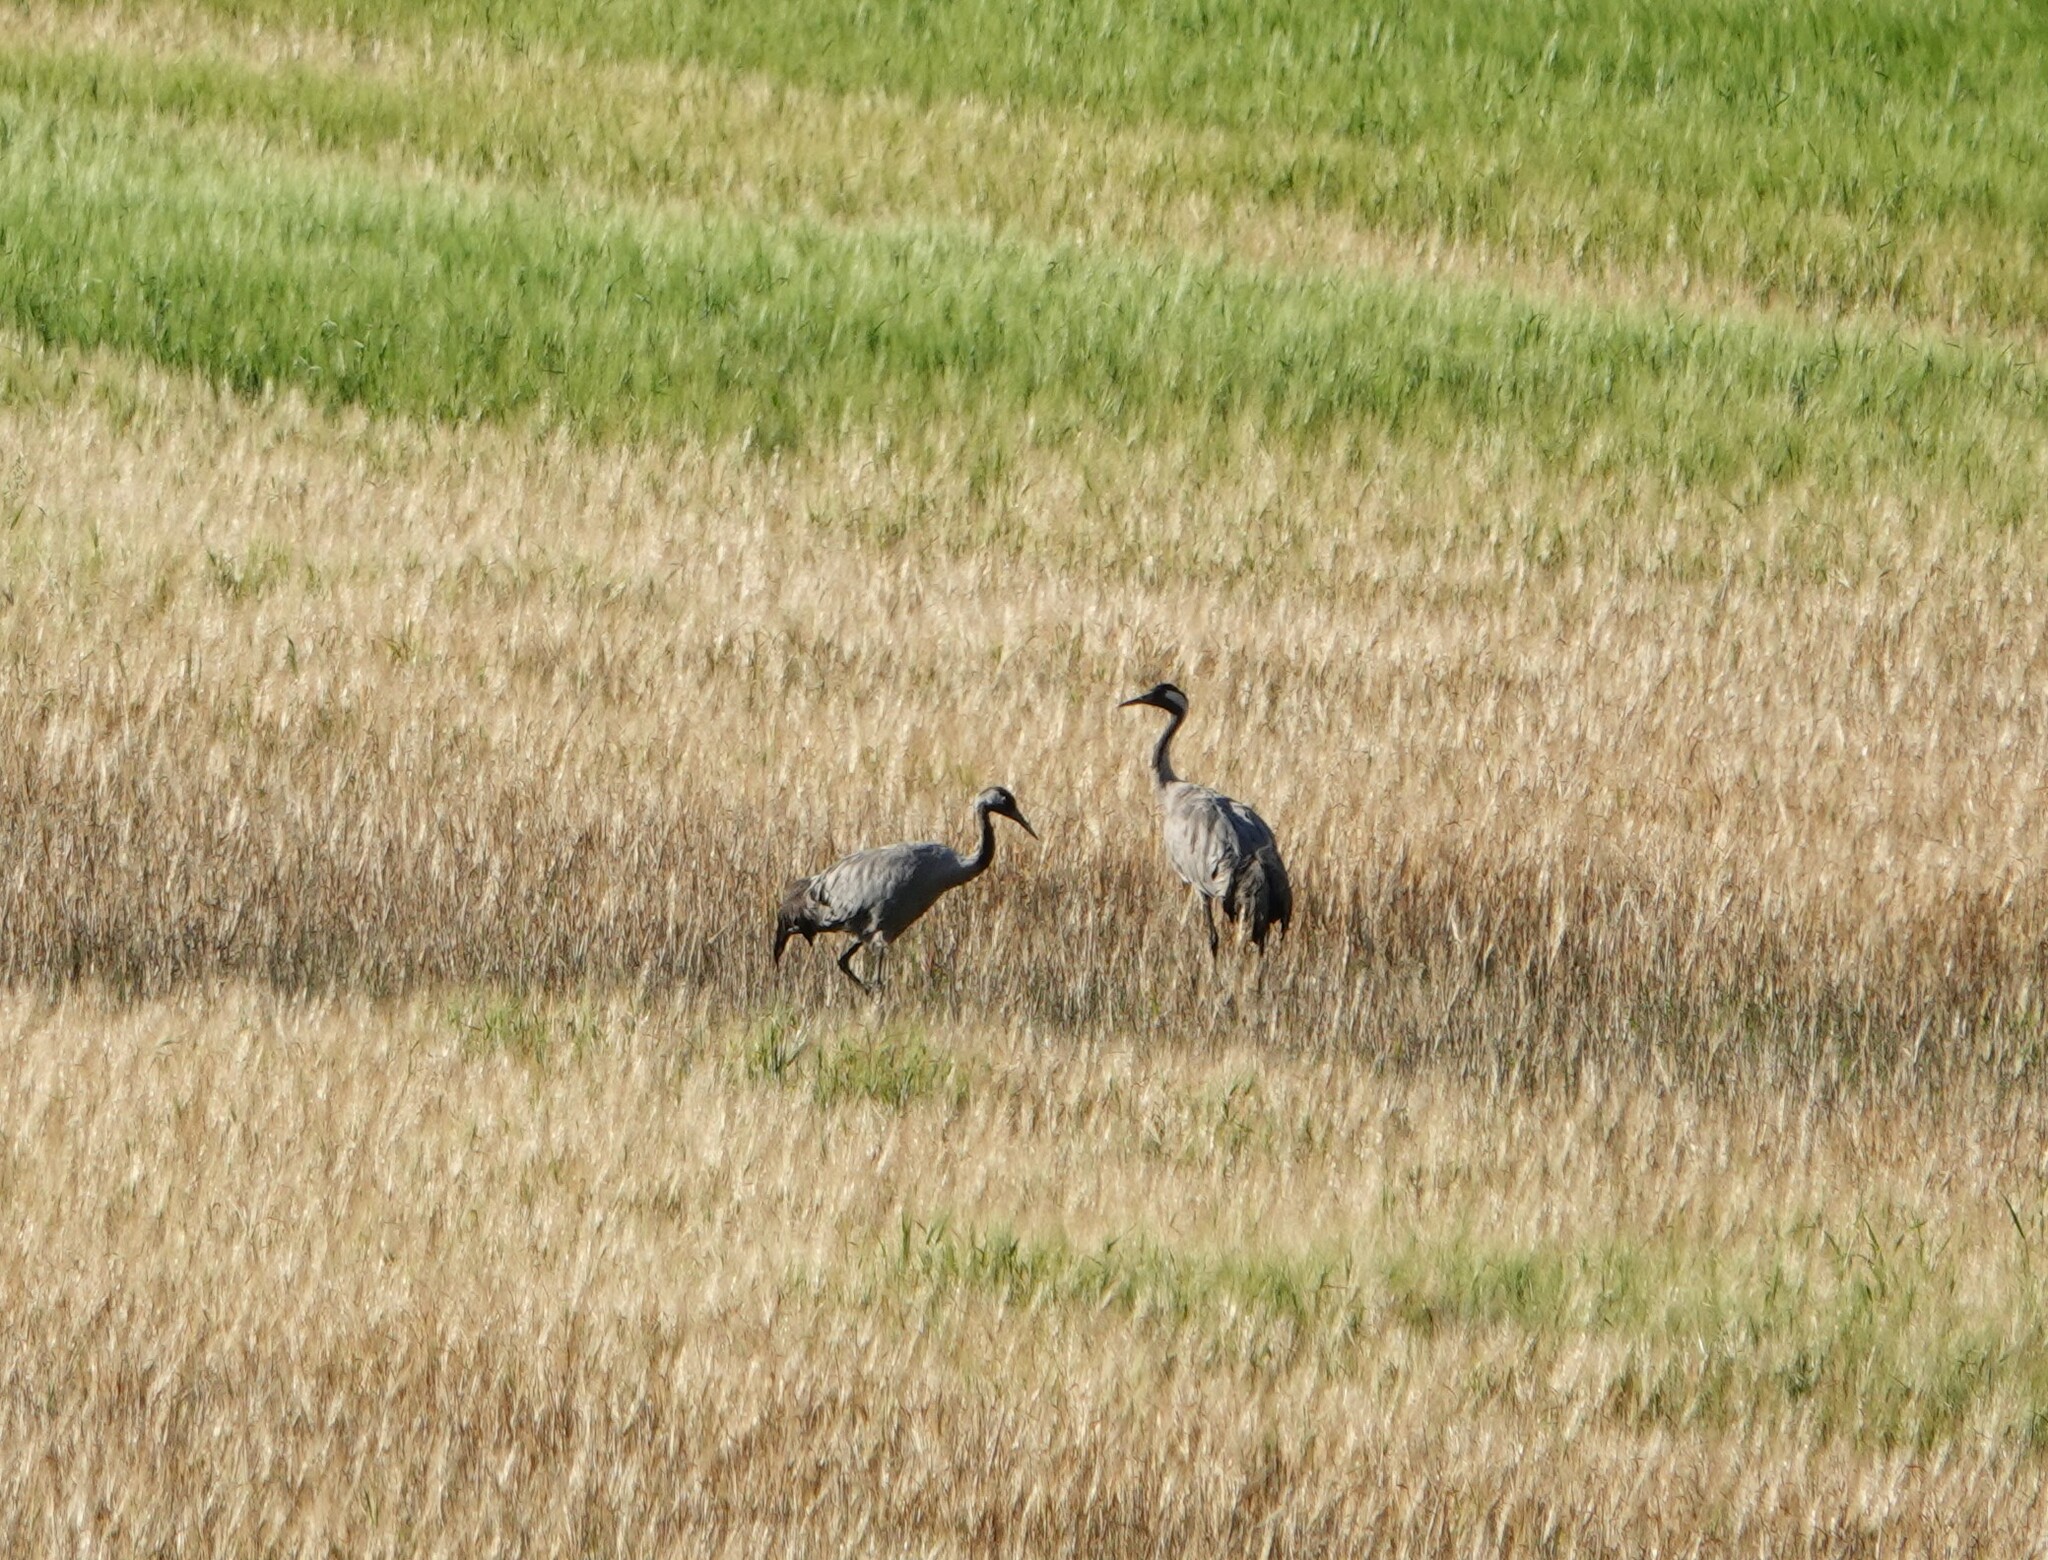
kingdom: Animalia
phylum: Chordata
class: Aves
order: Gruiformes
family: Gruidae
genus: Grus
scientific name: Grus grus
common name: Common crane
